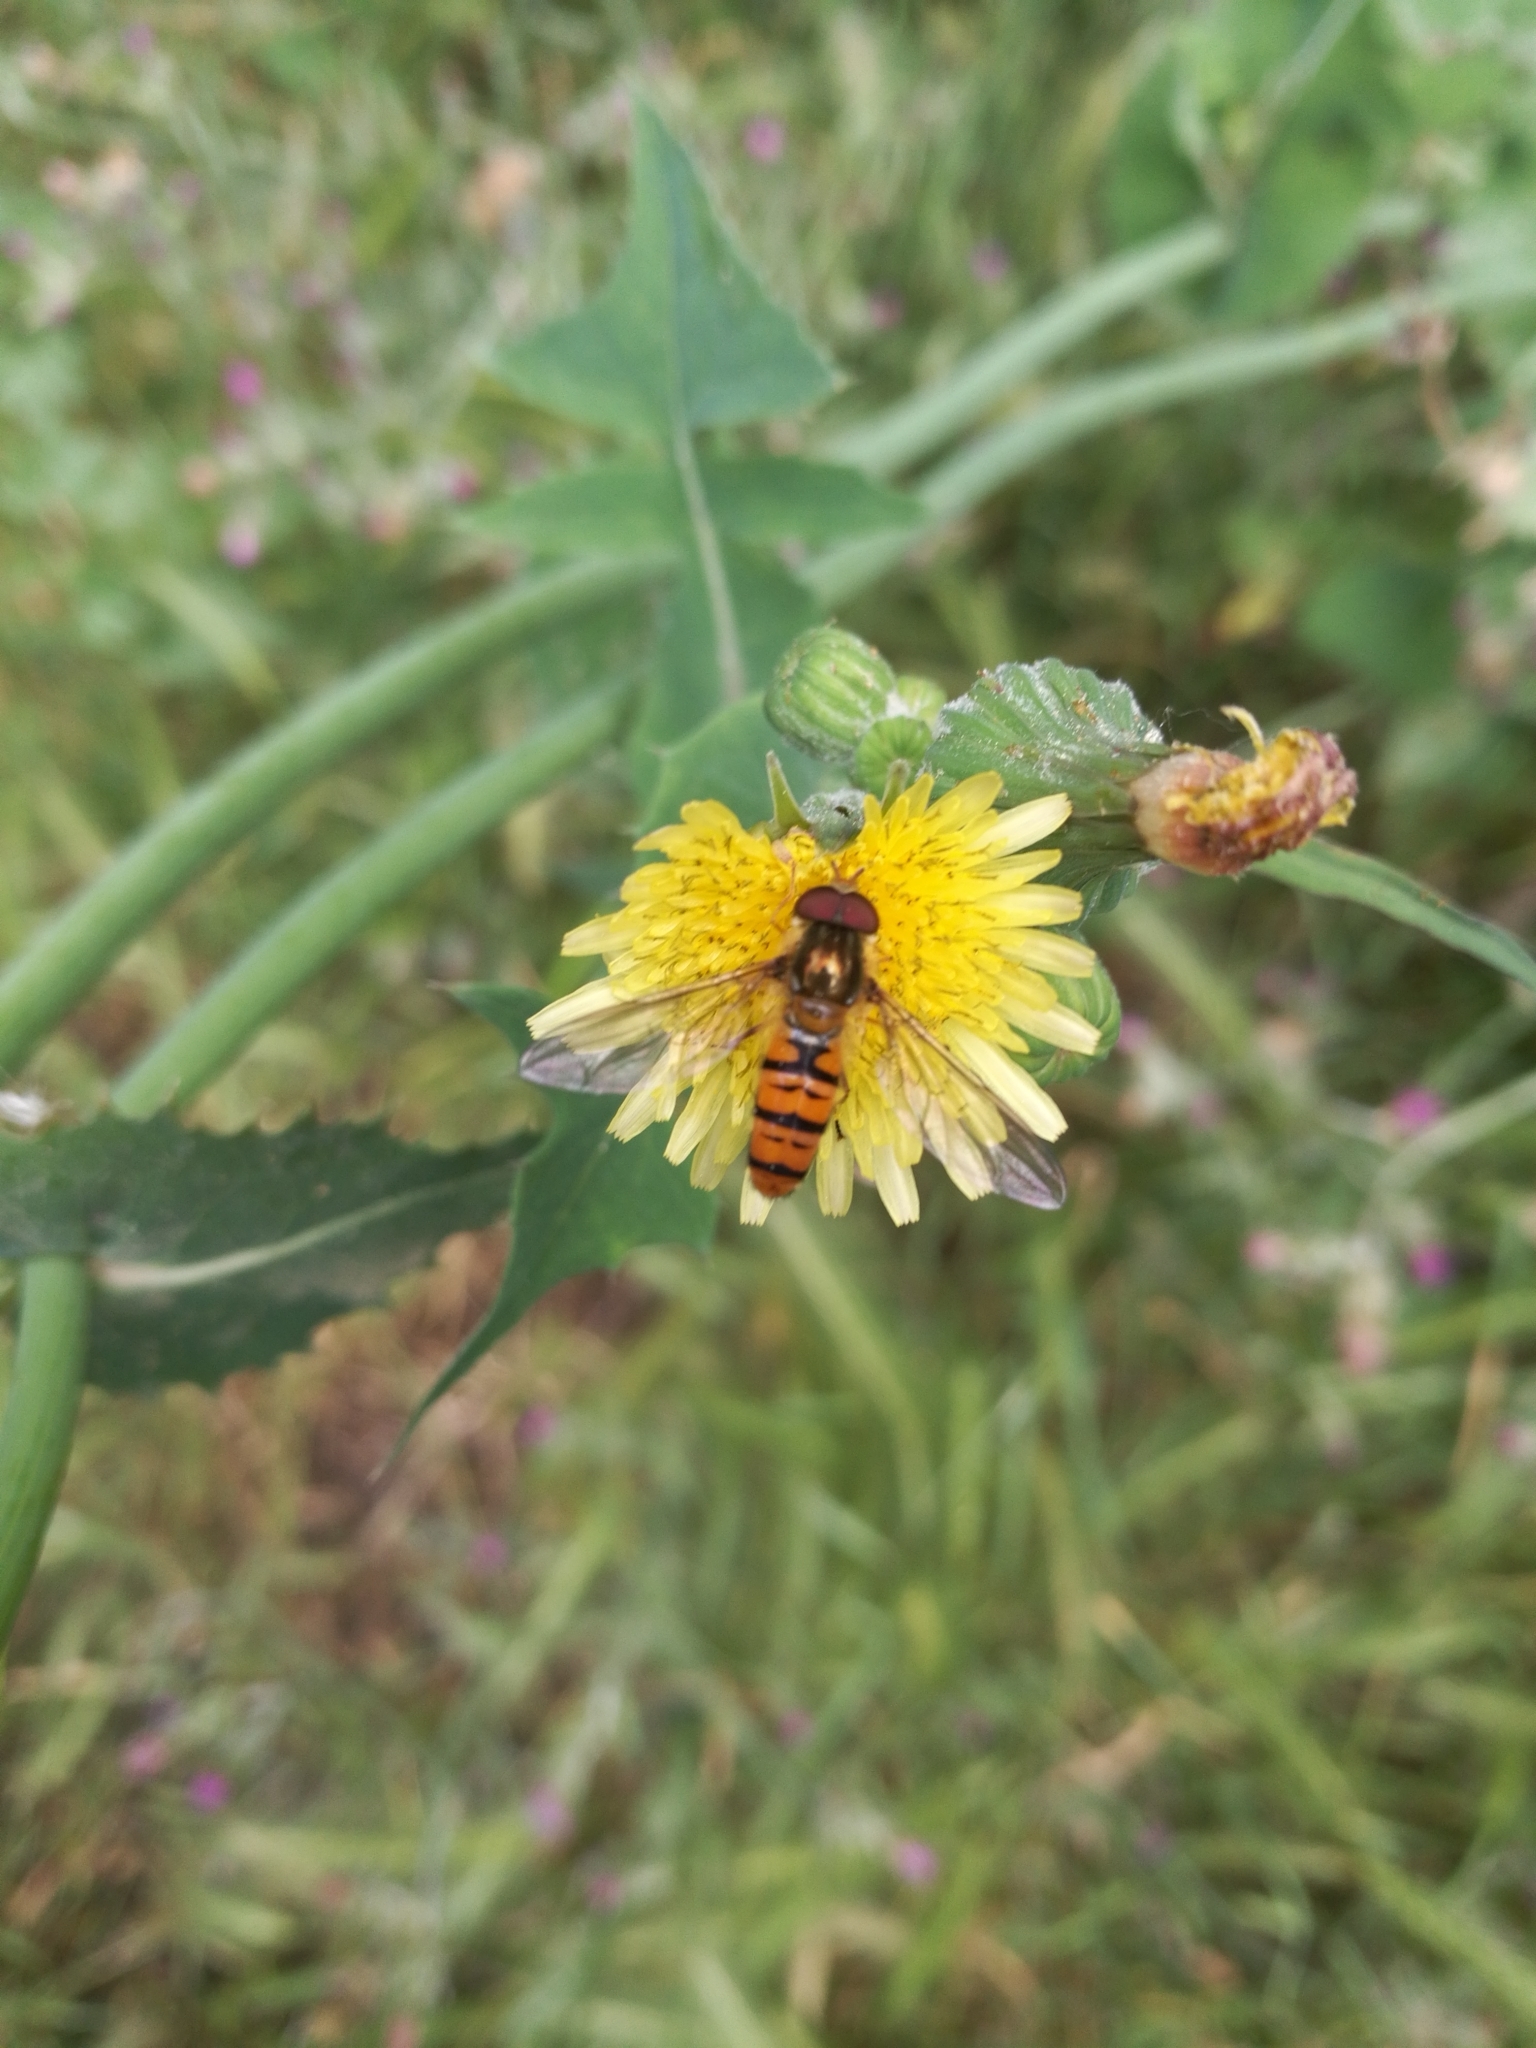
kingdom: Animalia
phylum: Arthropoda
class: Insecta
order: Diptera
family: Syrphidae
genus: Episyrphus
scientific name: Episyrphus balteatus
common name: Marmalade hoverfly
